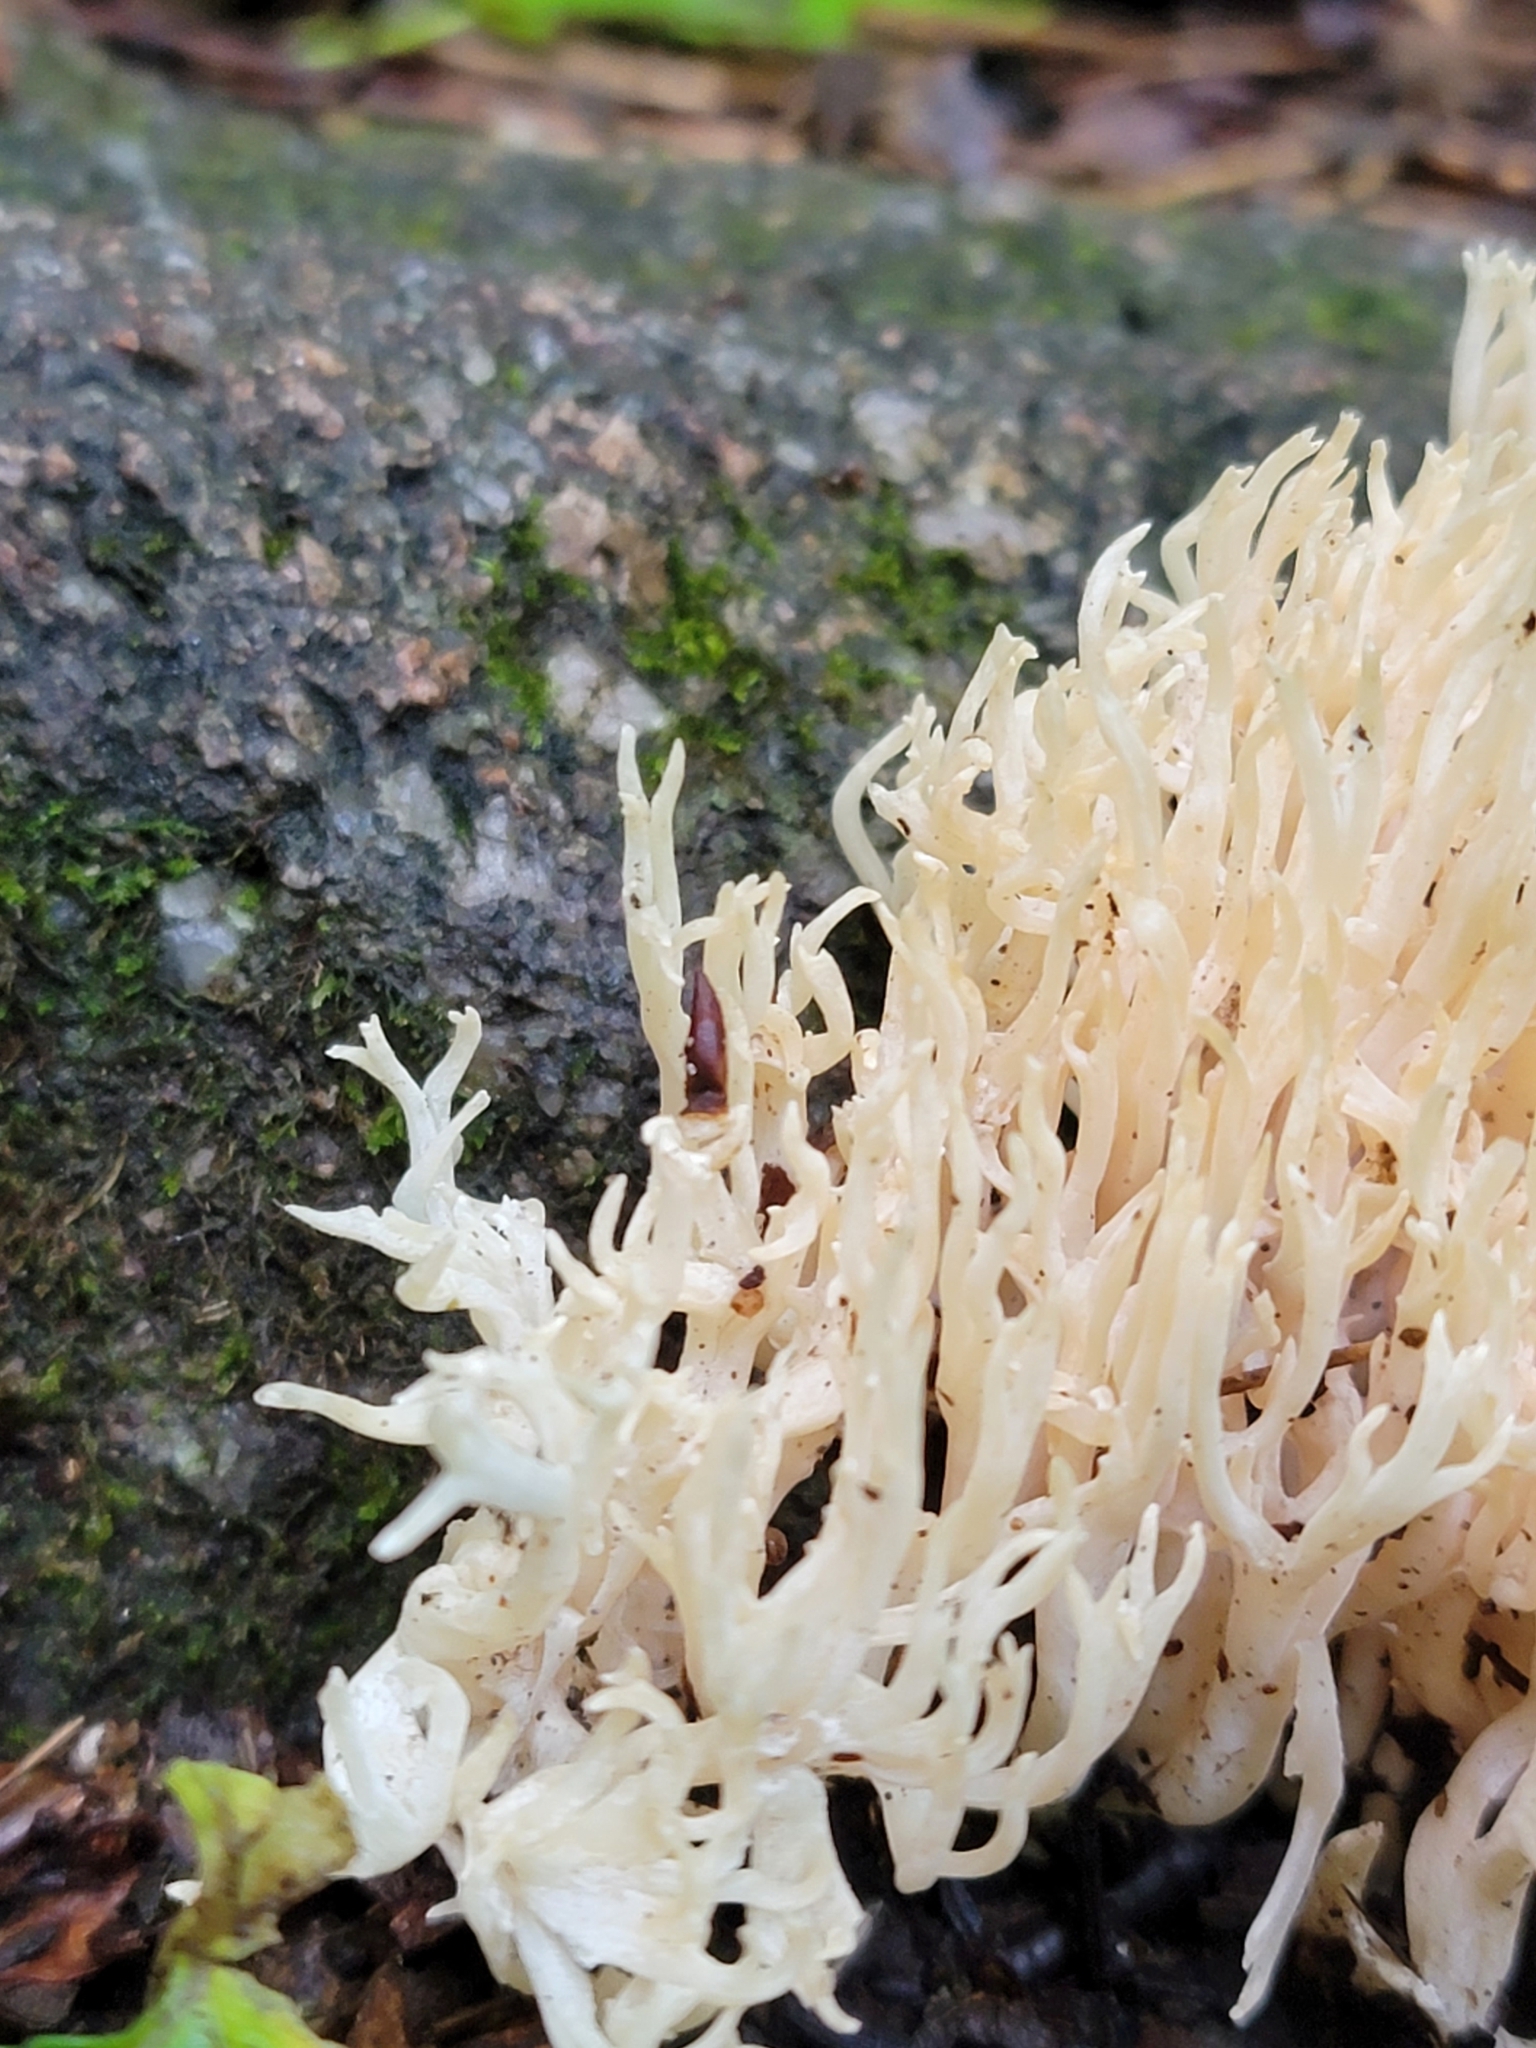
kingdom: Fungi
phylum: Basidiomycota
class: Agaricomycetes
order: Agaricales
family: Clavariaceae
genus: Ramariopsis
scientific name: Ramariopsis kunzei
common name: Ivory coral
